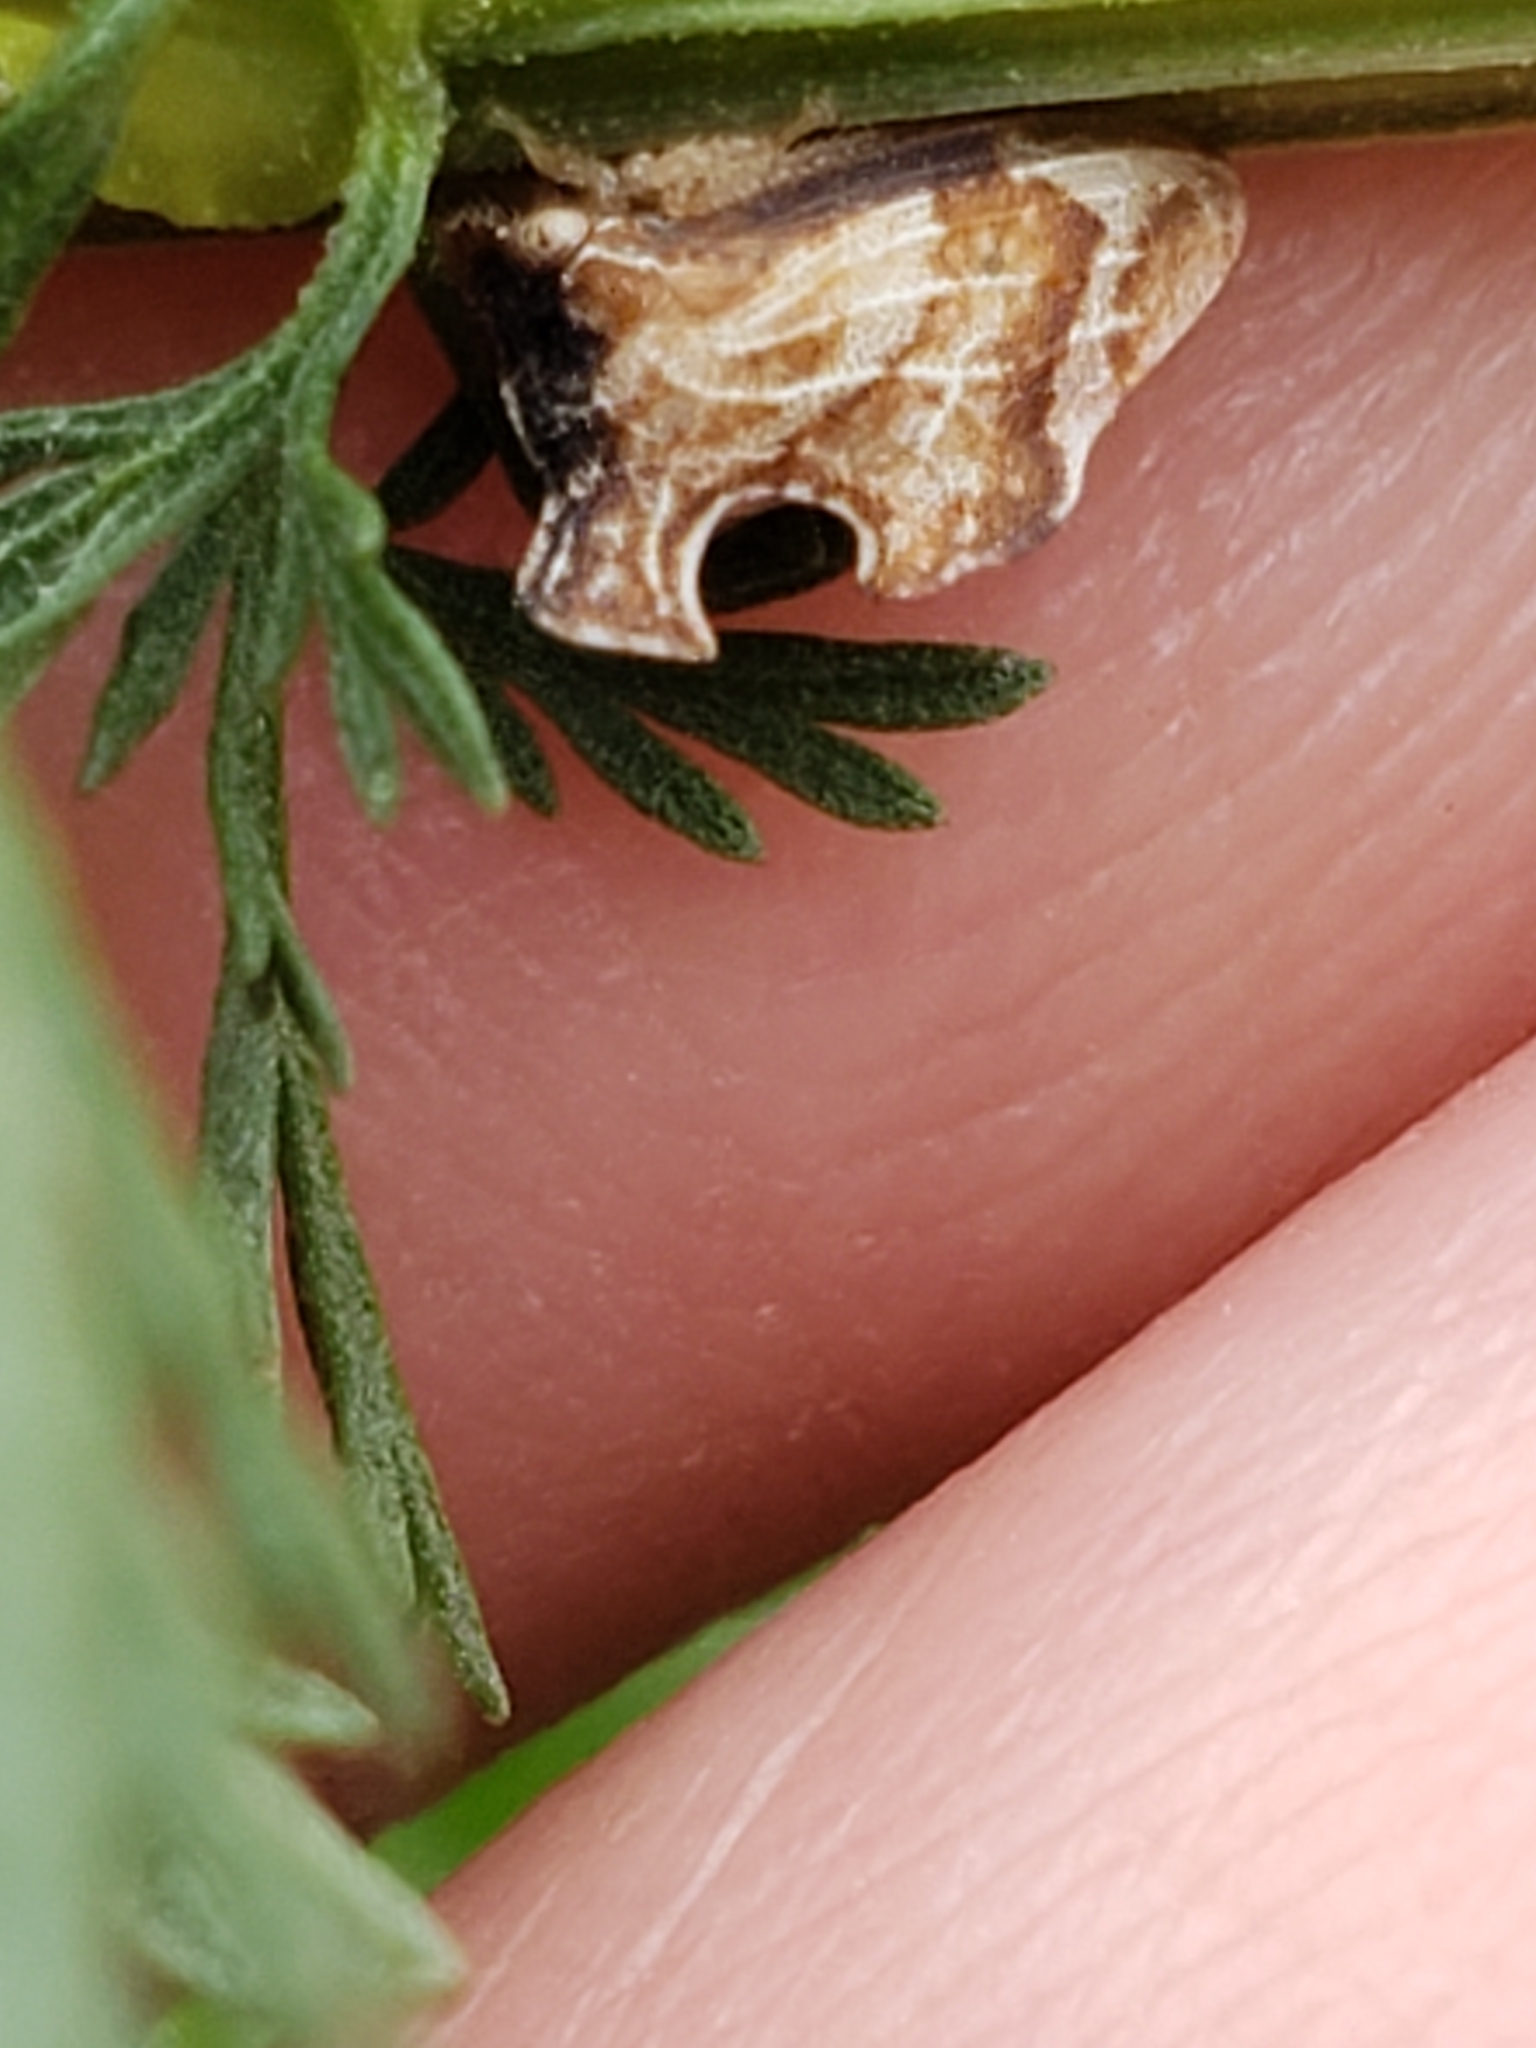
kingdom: Animalia
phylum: Arthropoda
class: Insecta
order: Hemiptera
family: Membracidae
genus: Entylia
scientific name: Entylia carinata
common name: Keeled treehopper
